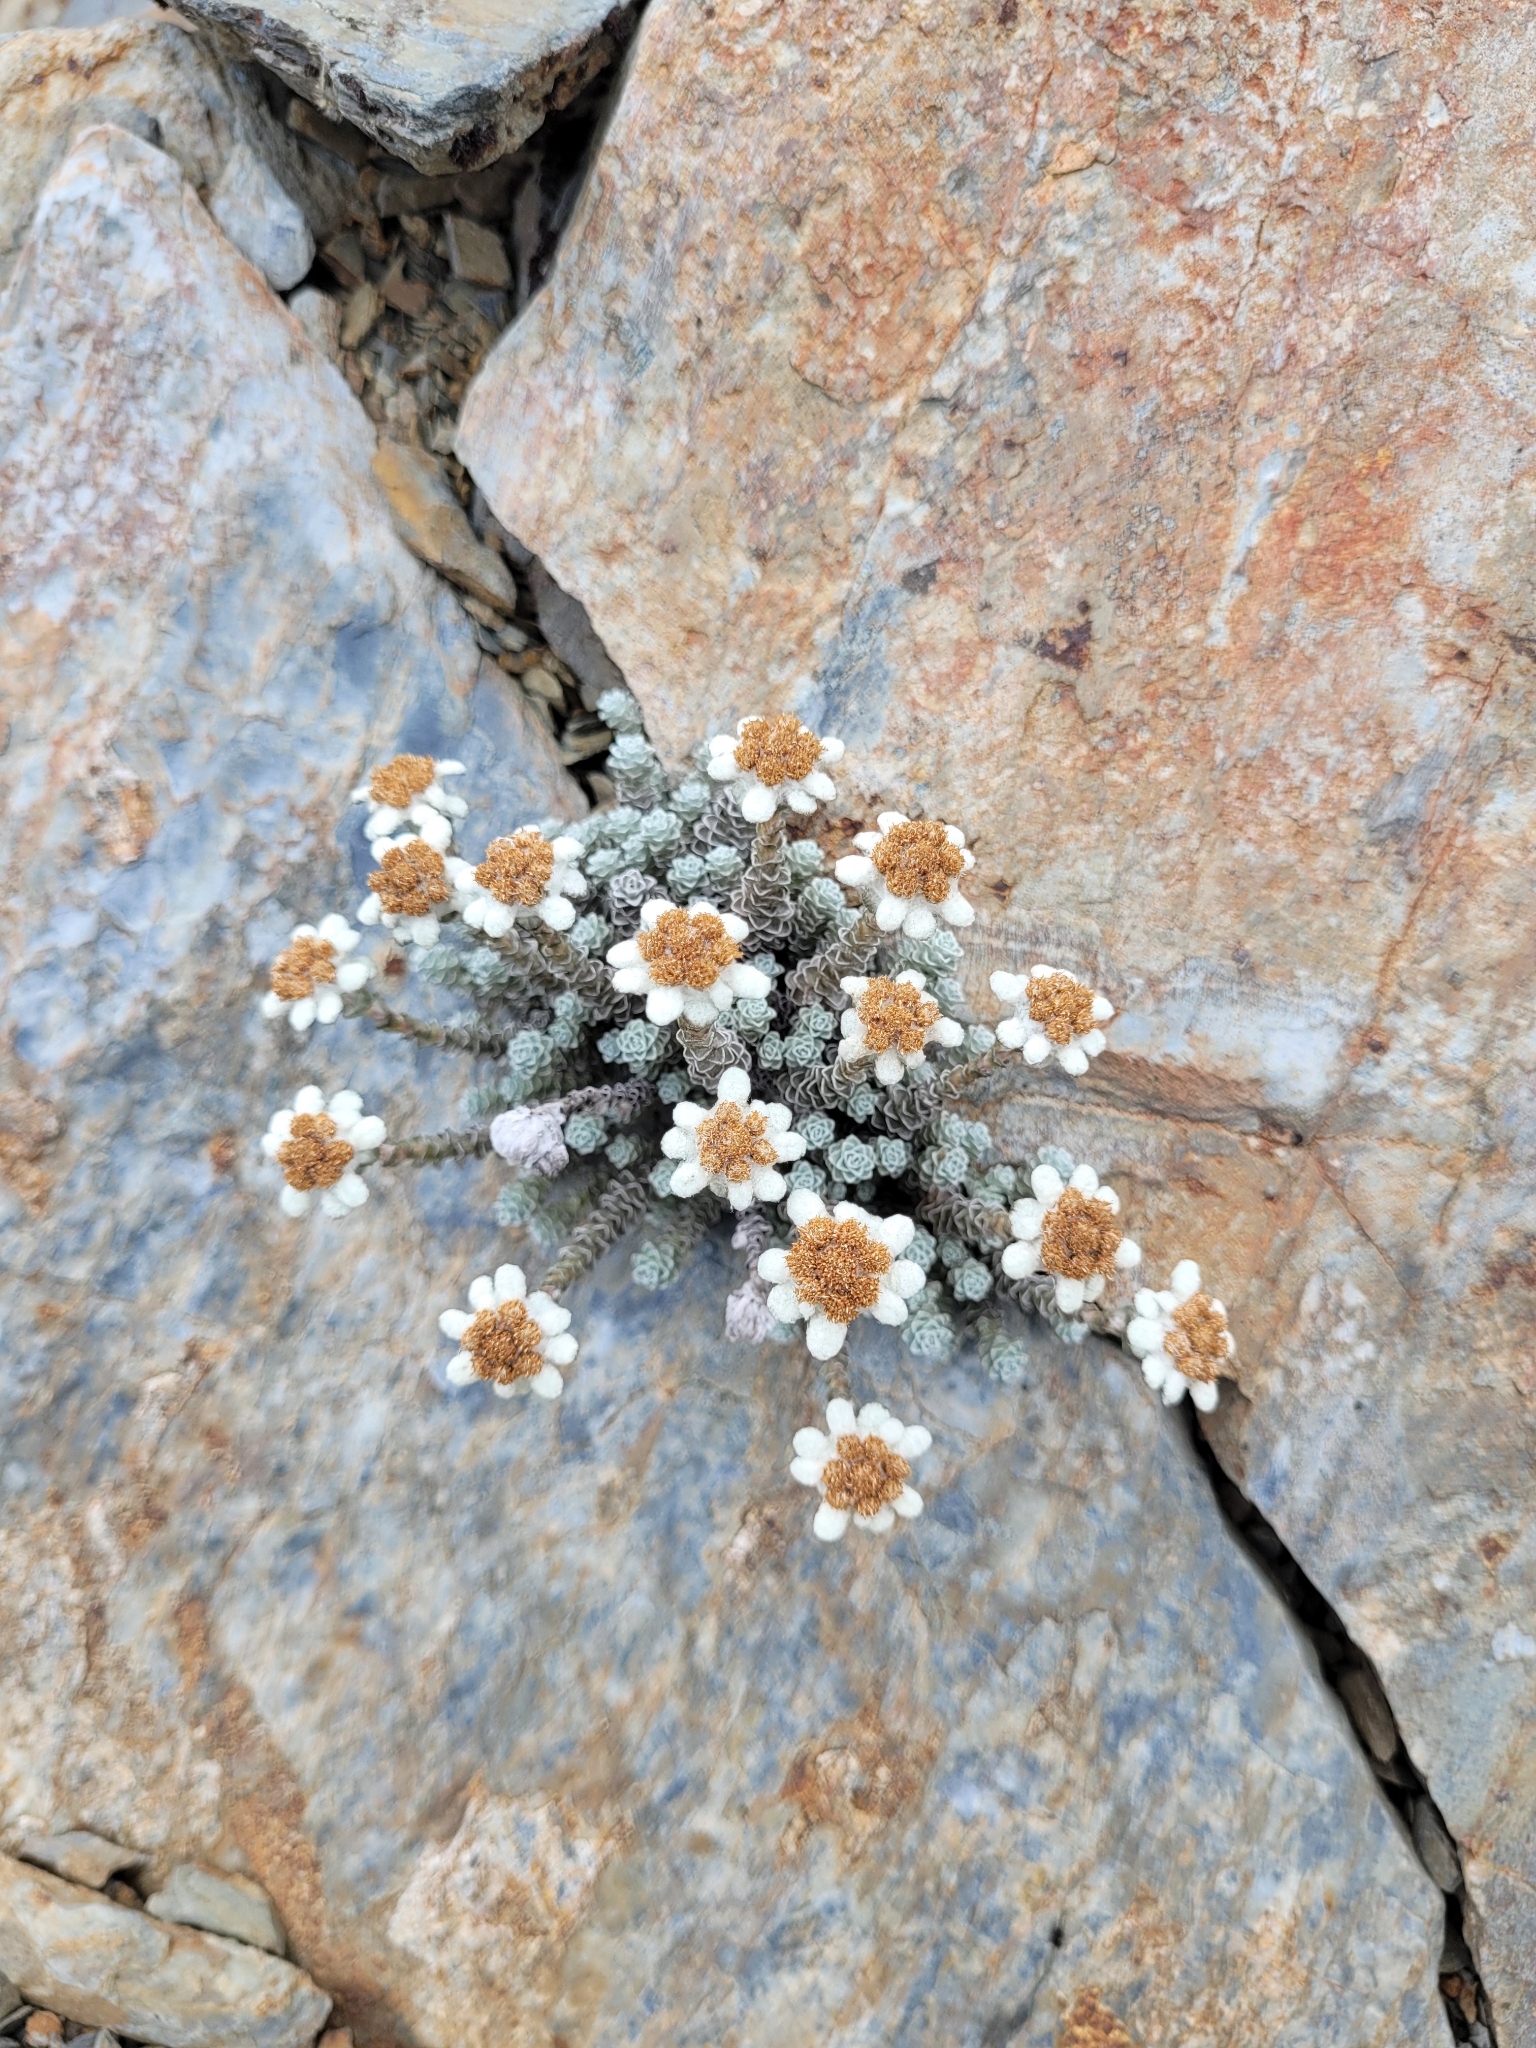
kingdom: Plantae
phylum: Tracheophyta
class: Magnoliopsida
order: Asterales
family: Asteraceae
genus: Leucogenes
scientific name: Leucogenes grandiceps
